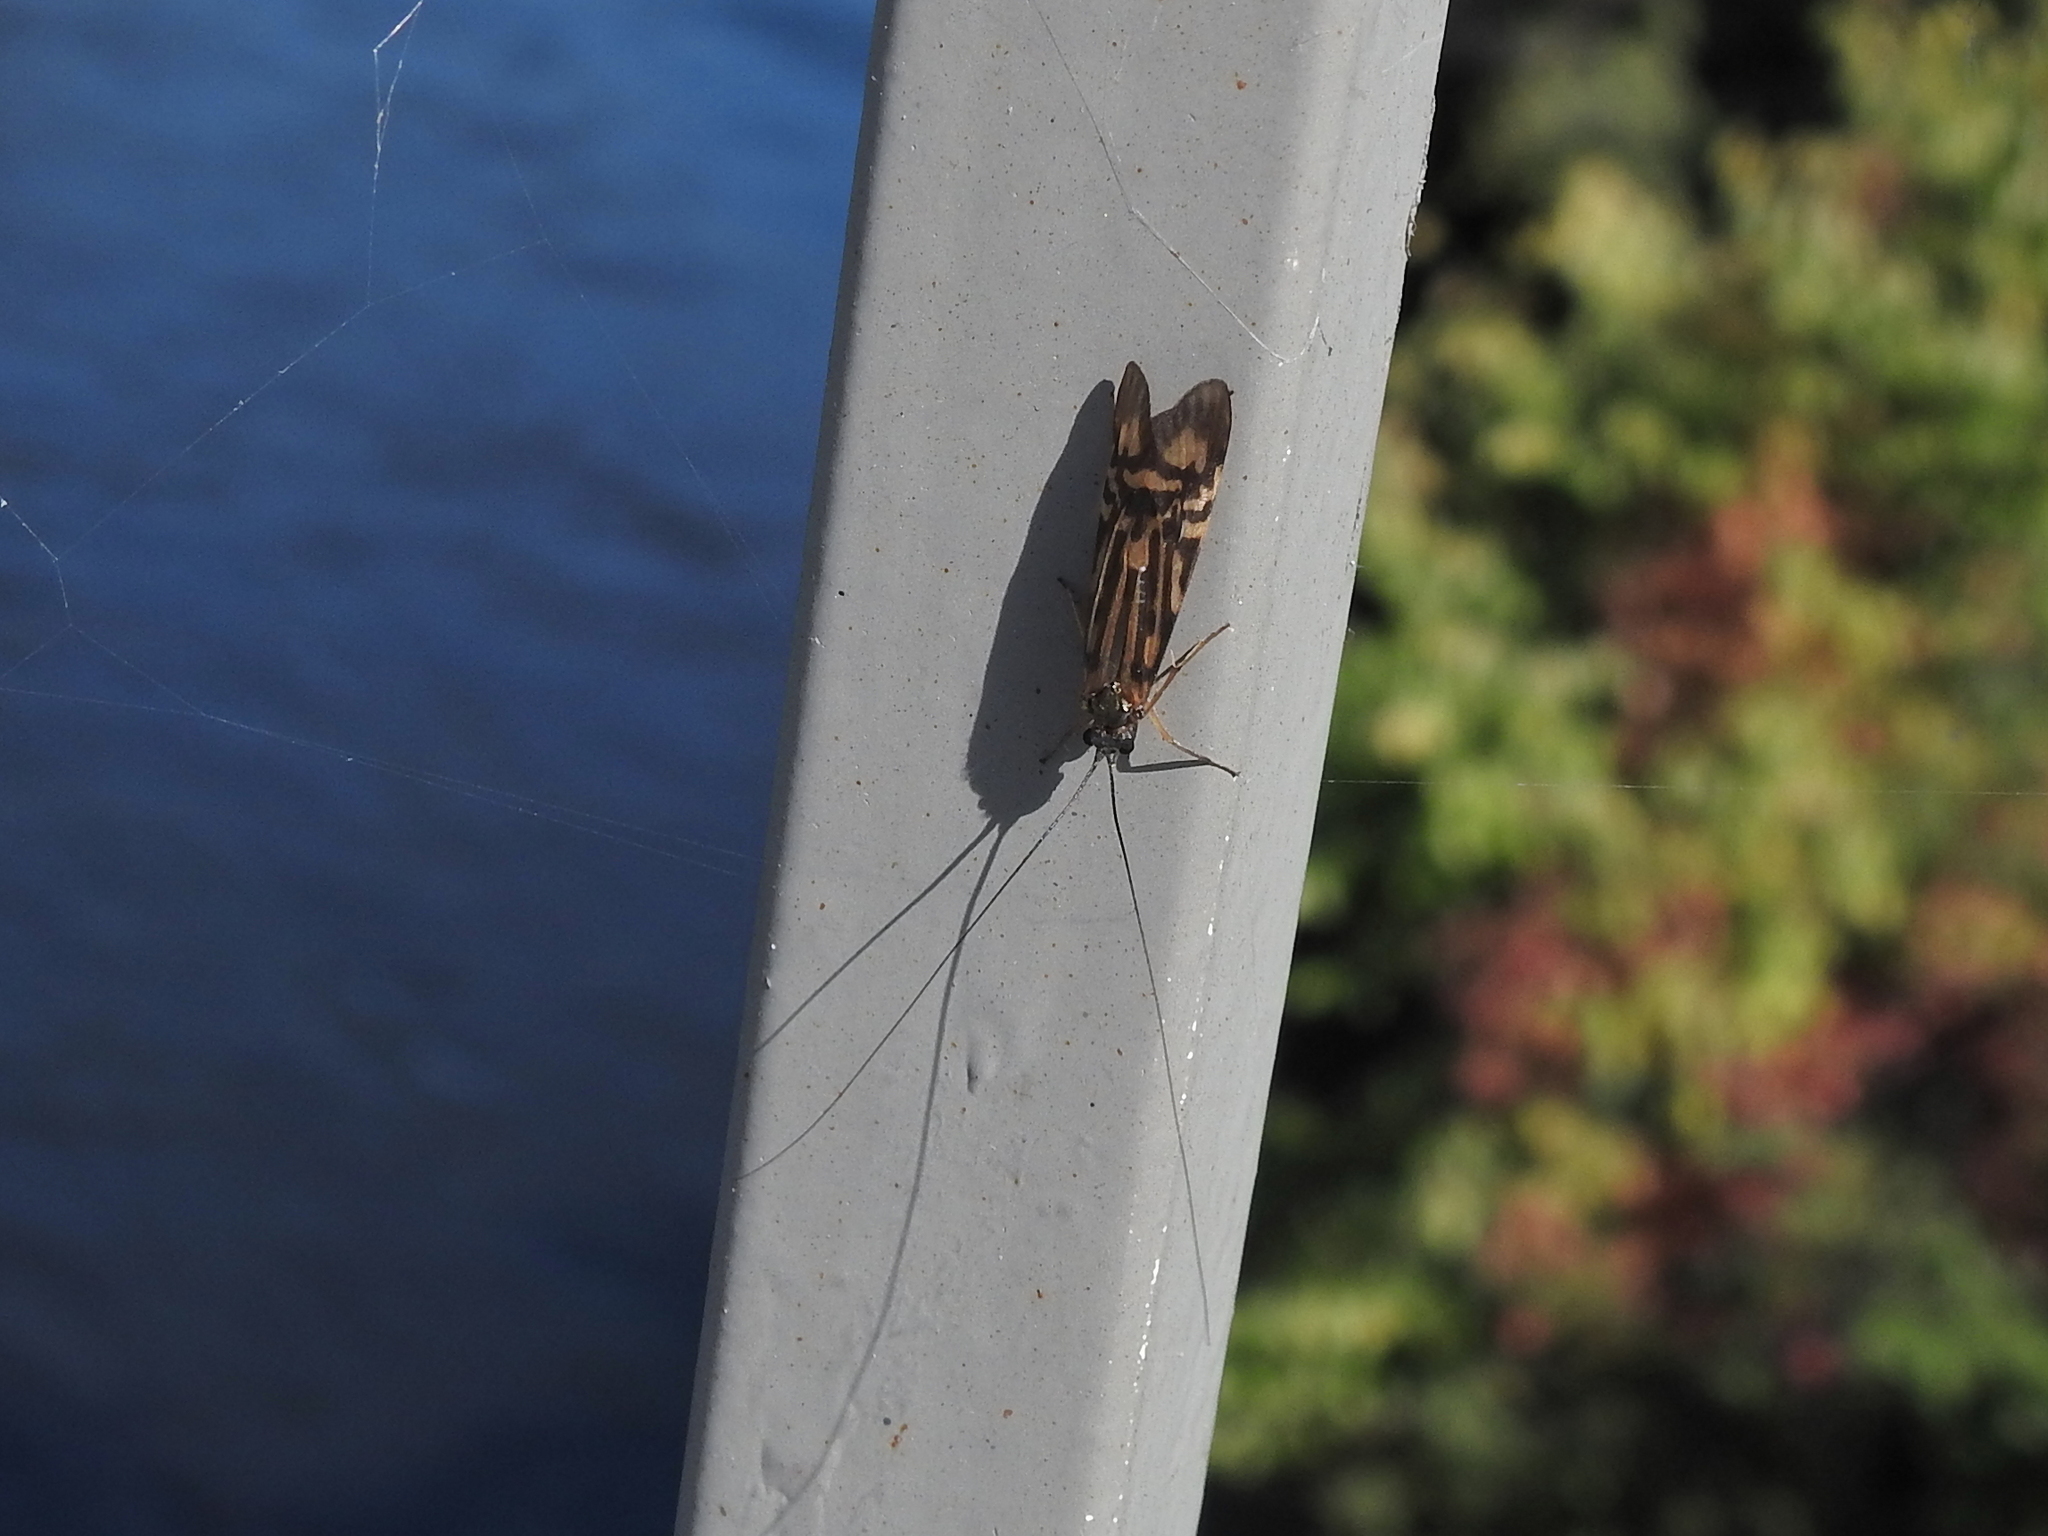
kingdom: Animalia
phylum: Arthropoda
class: Insecta
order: Trichoptera
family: Hydropsychidae
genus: Macrostemum
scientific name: Macrostemum zebratum
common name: Zebra caddisfly
